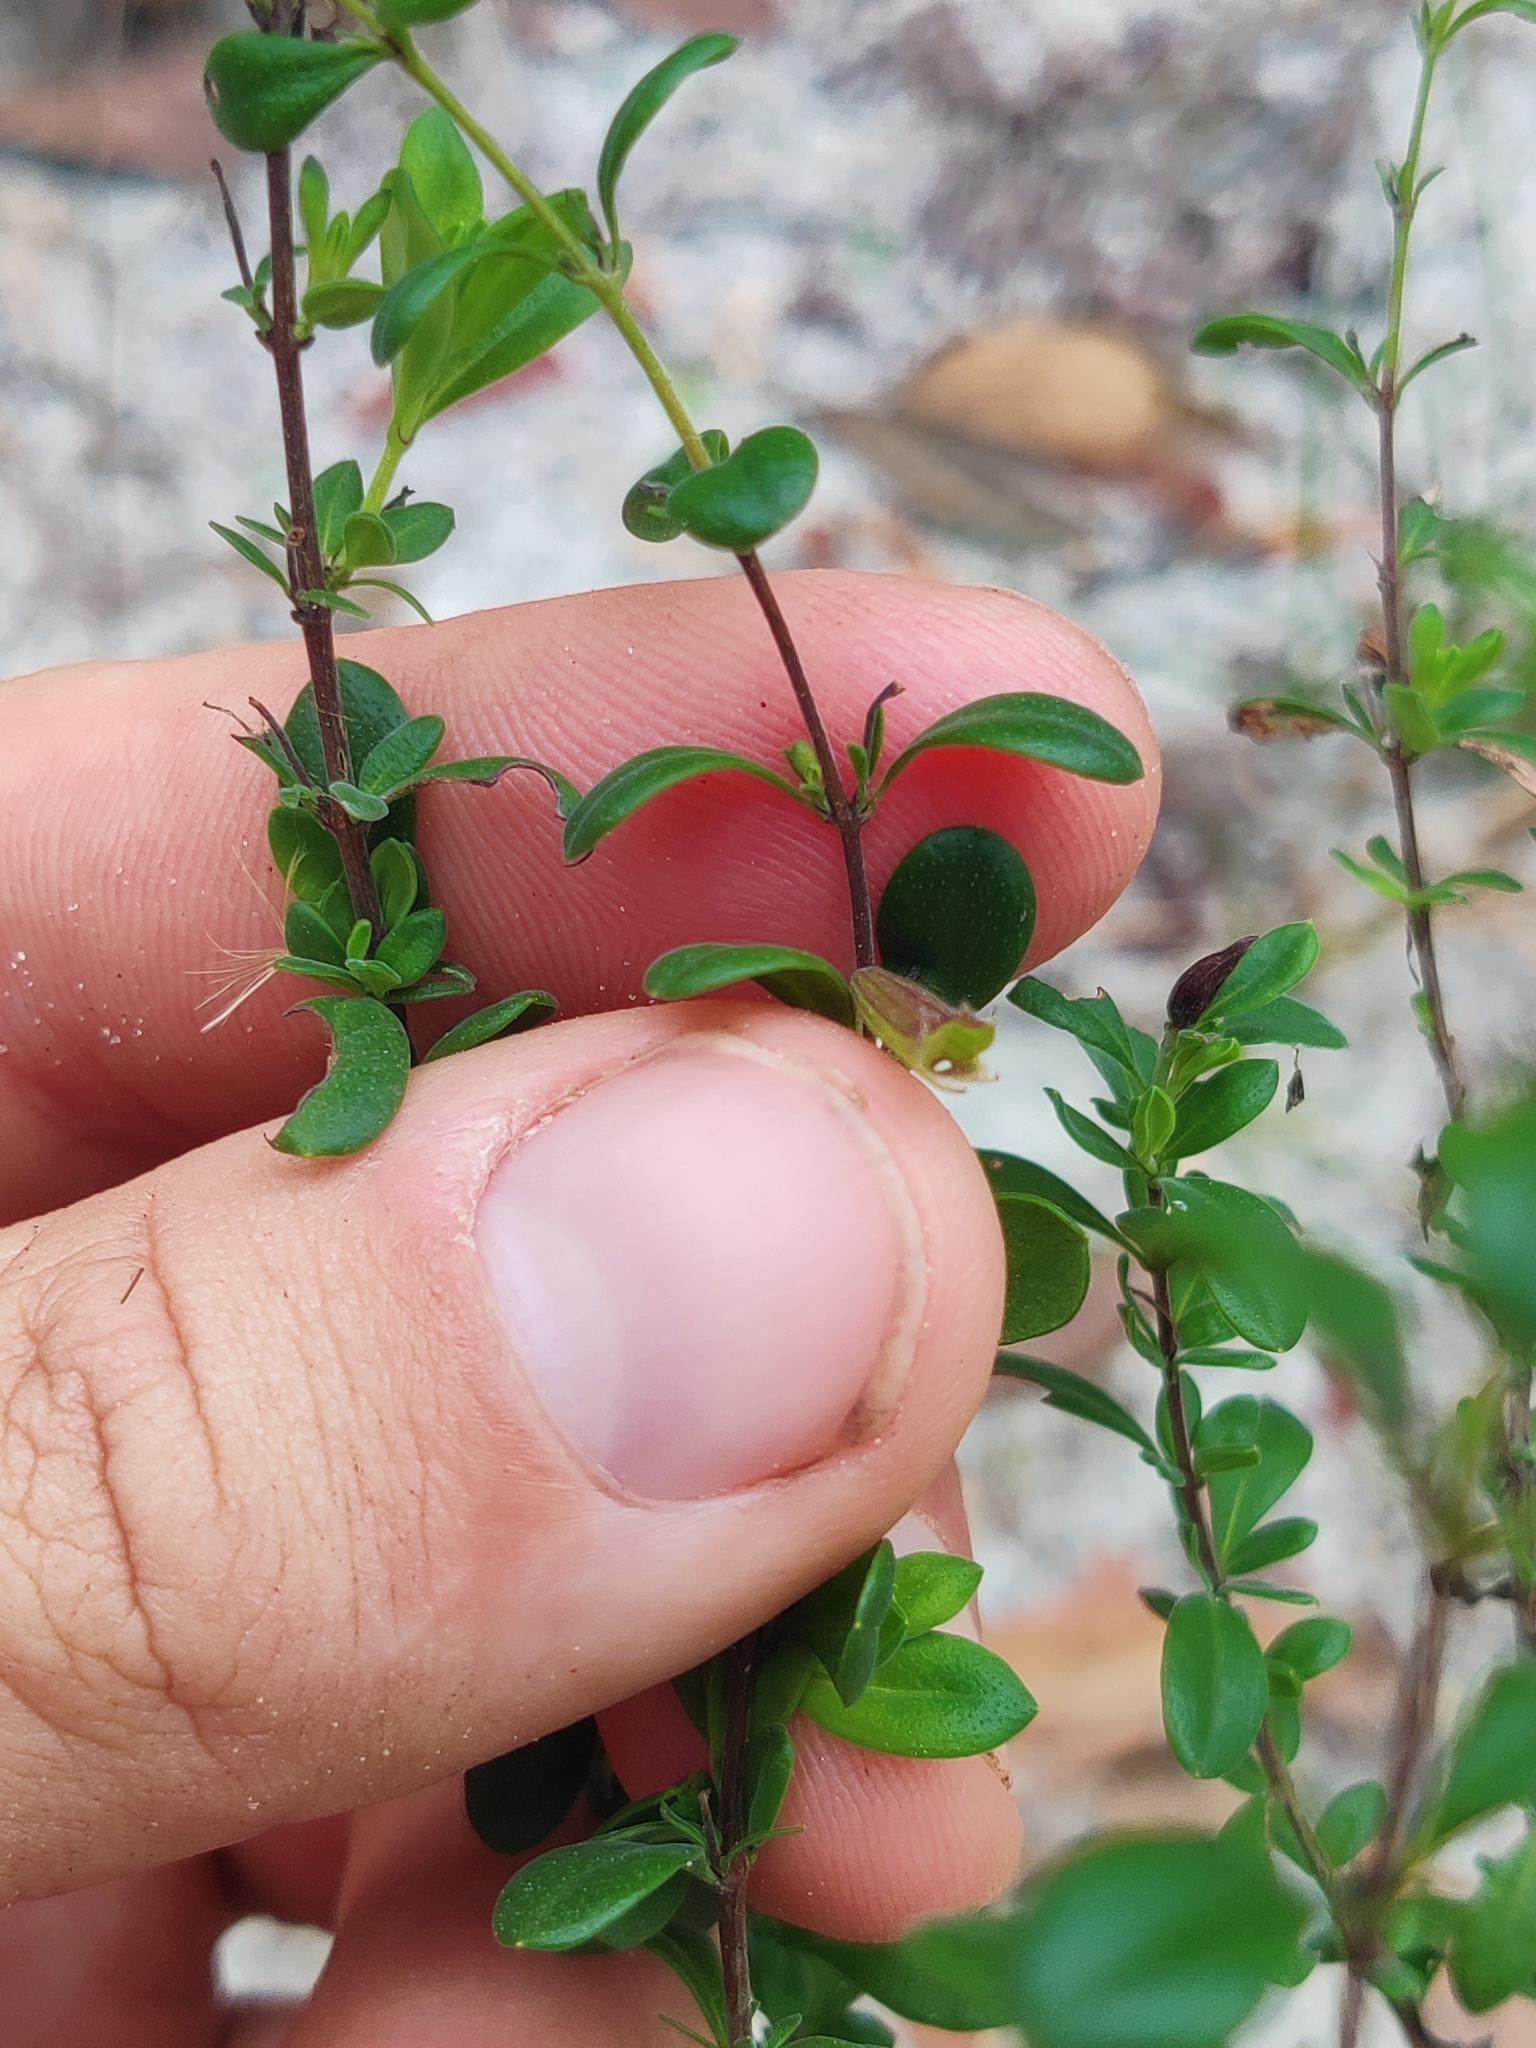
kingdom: Plantae
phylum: Tracheophyta
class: Magnoliopsida
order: Lamiales
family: Lamiaceae
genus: Clinopodium
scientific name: Clinopodium coccineum
